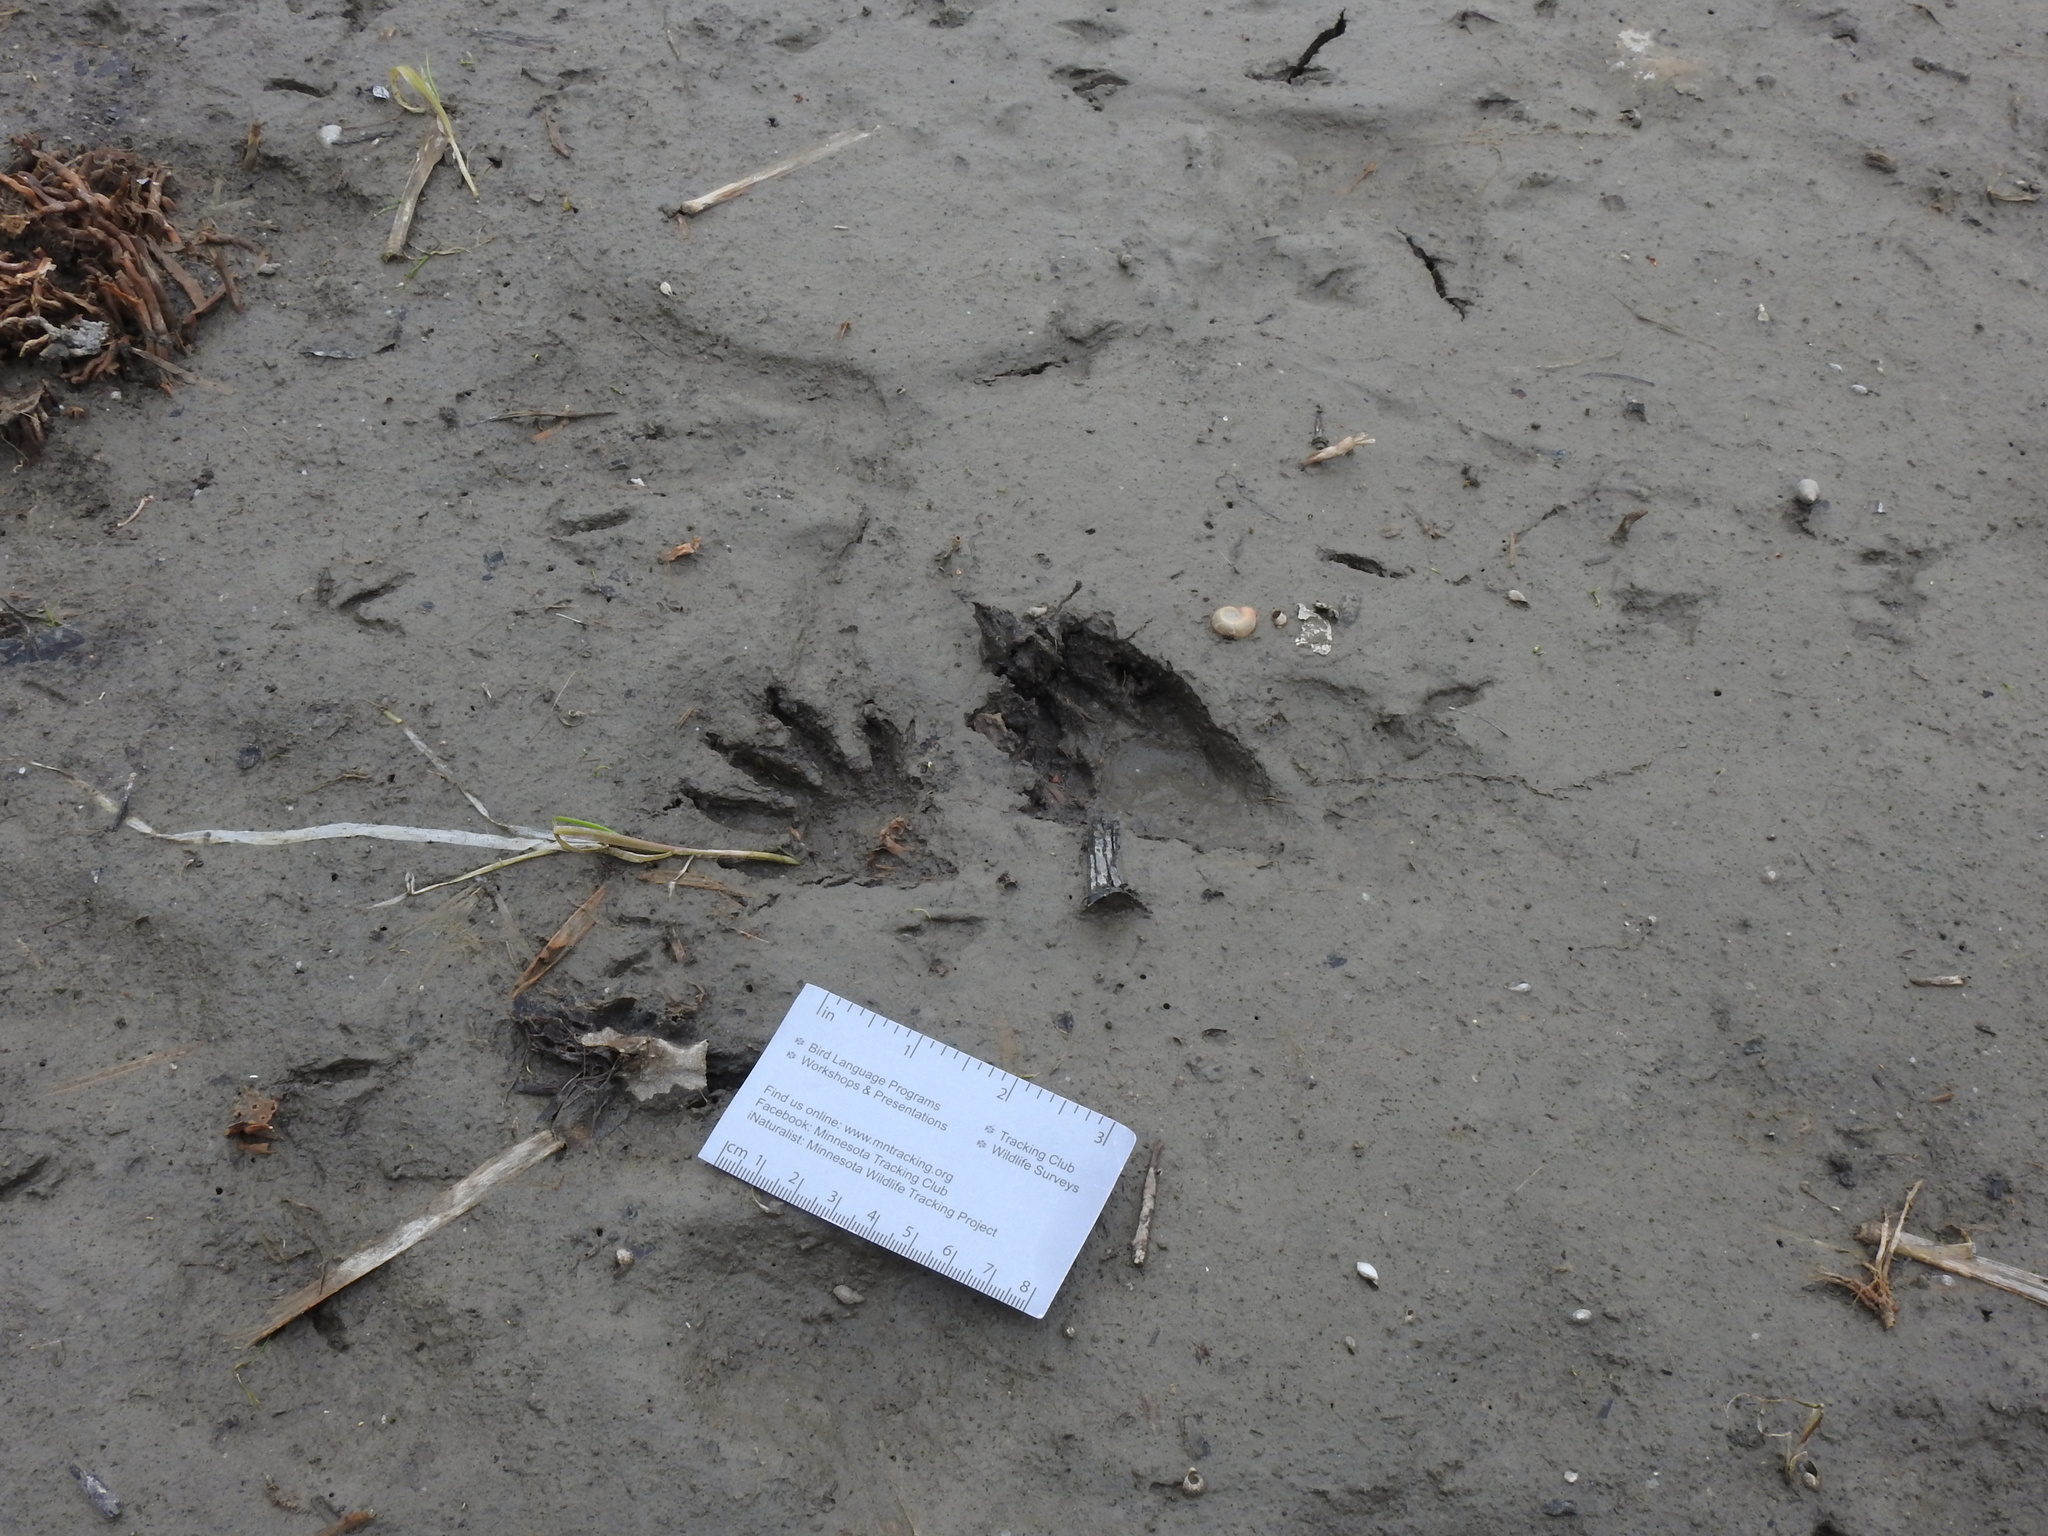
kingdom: Animalia
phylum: Chordata
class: Mammalia
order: Carnivora
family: Procyonidae
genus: Procyon
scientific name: Procyon lotor
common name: Raccoon
